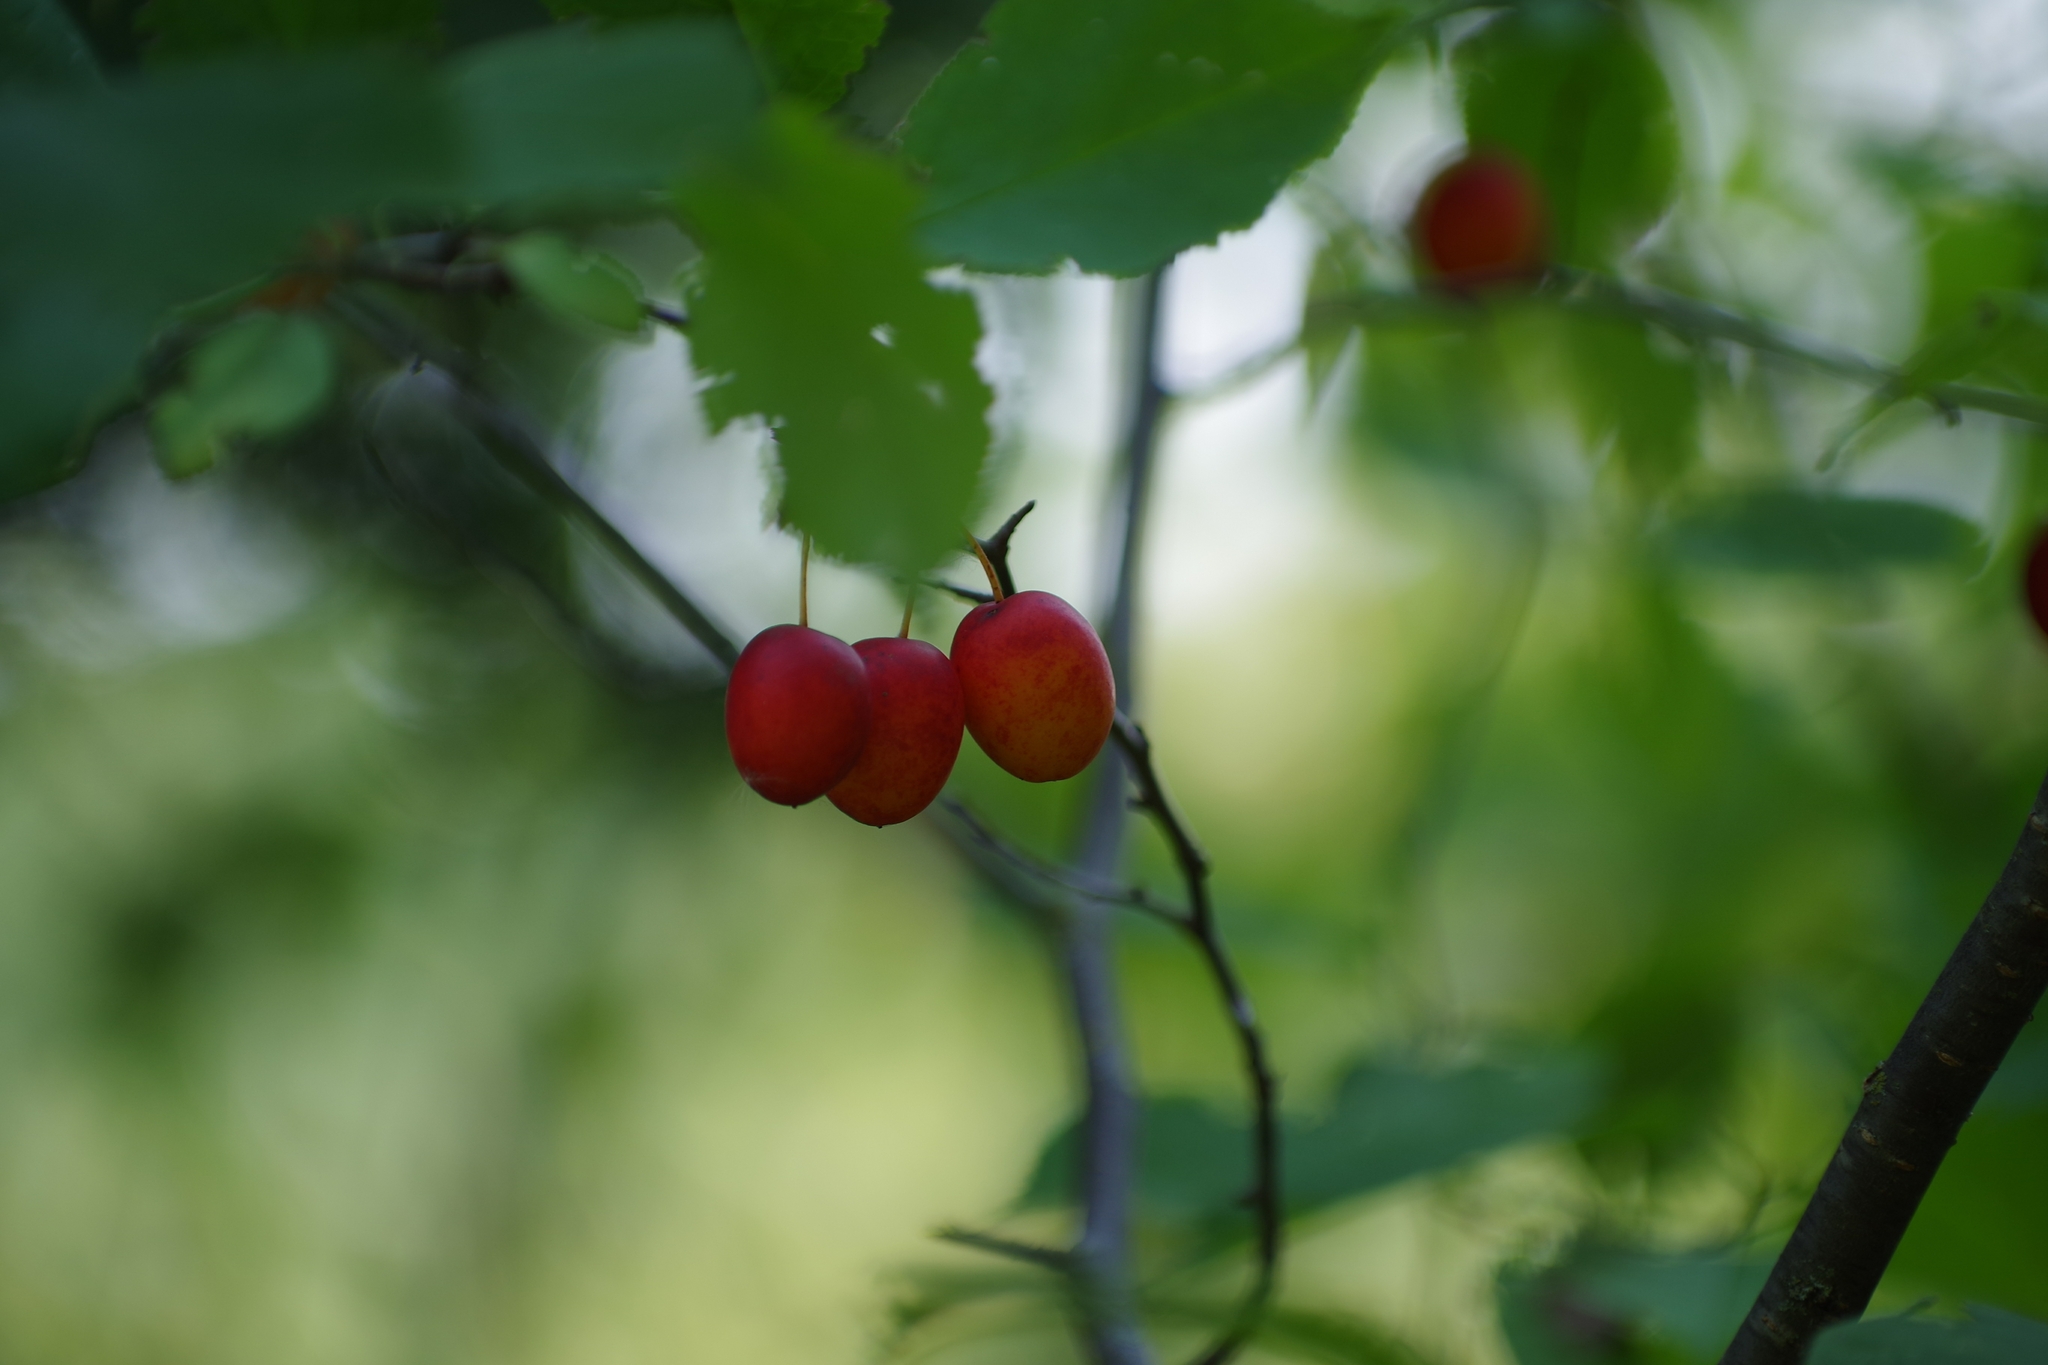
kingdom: Plantae
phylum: Tracheophyta
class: Magnoliopsida
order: Rosales
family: Rosaceae
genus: Prunus
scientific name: Prunus nigra
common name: Black plum
